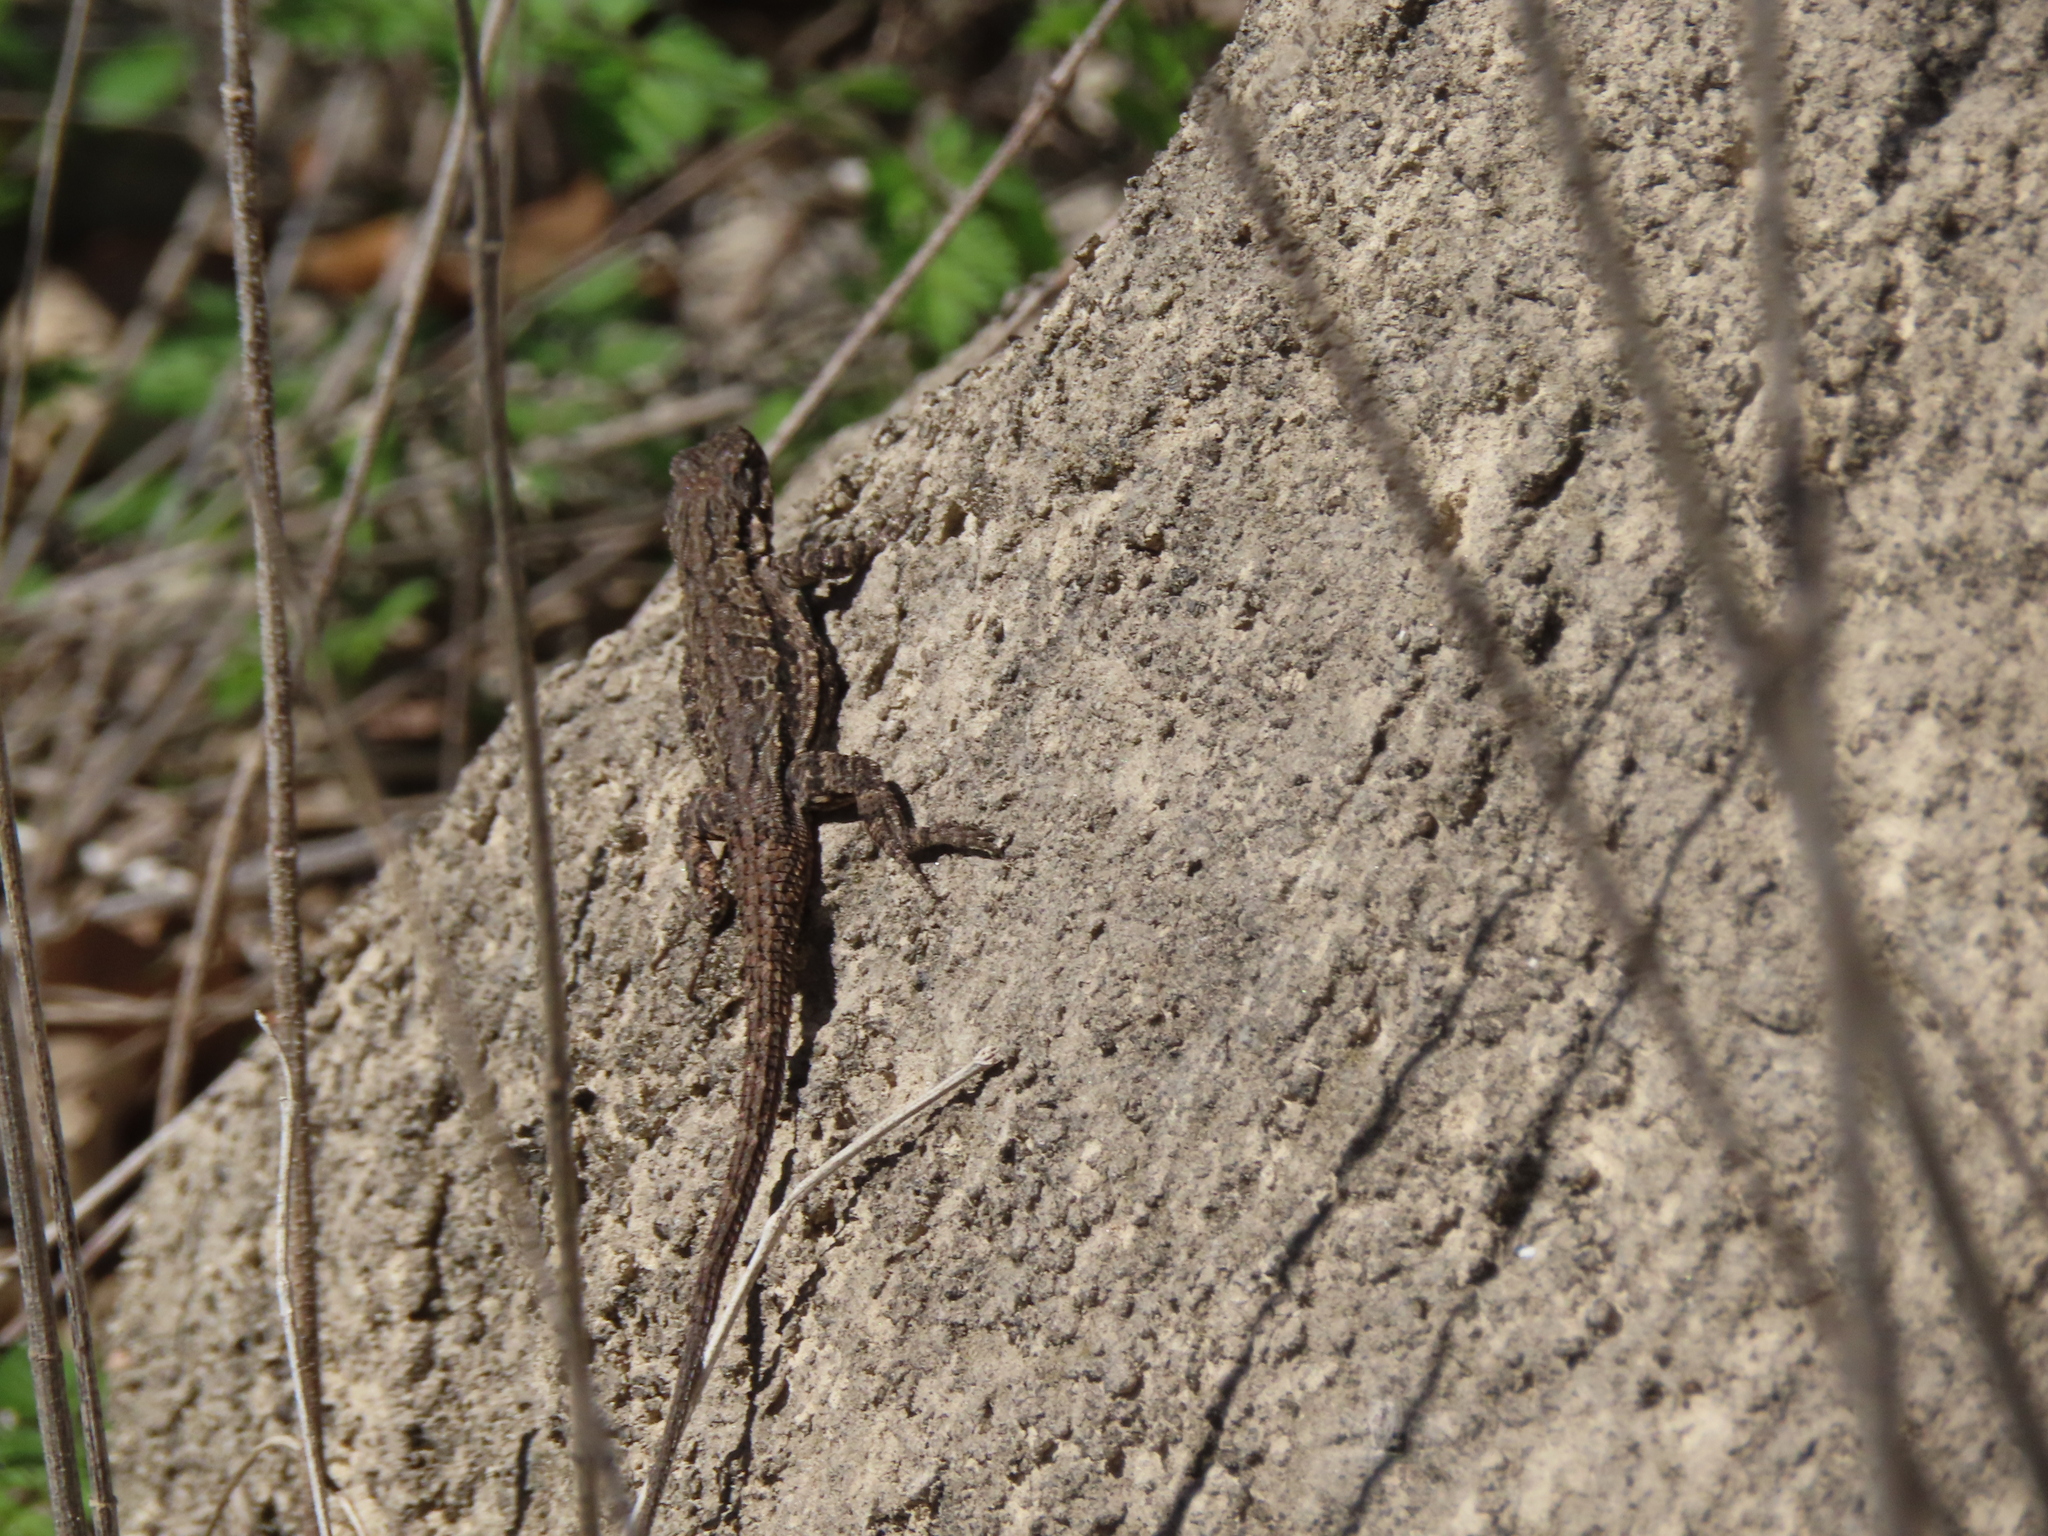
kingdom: Animalia
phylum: Chordata
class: Squamata
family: Phrynosomatidae
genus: Urosaurus
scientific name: Urosaurus ornatus
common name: Ornate tree lizard
